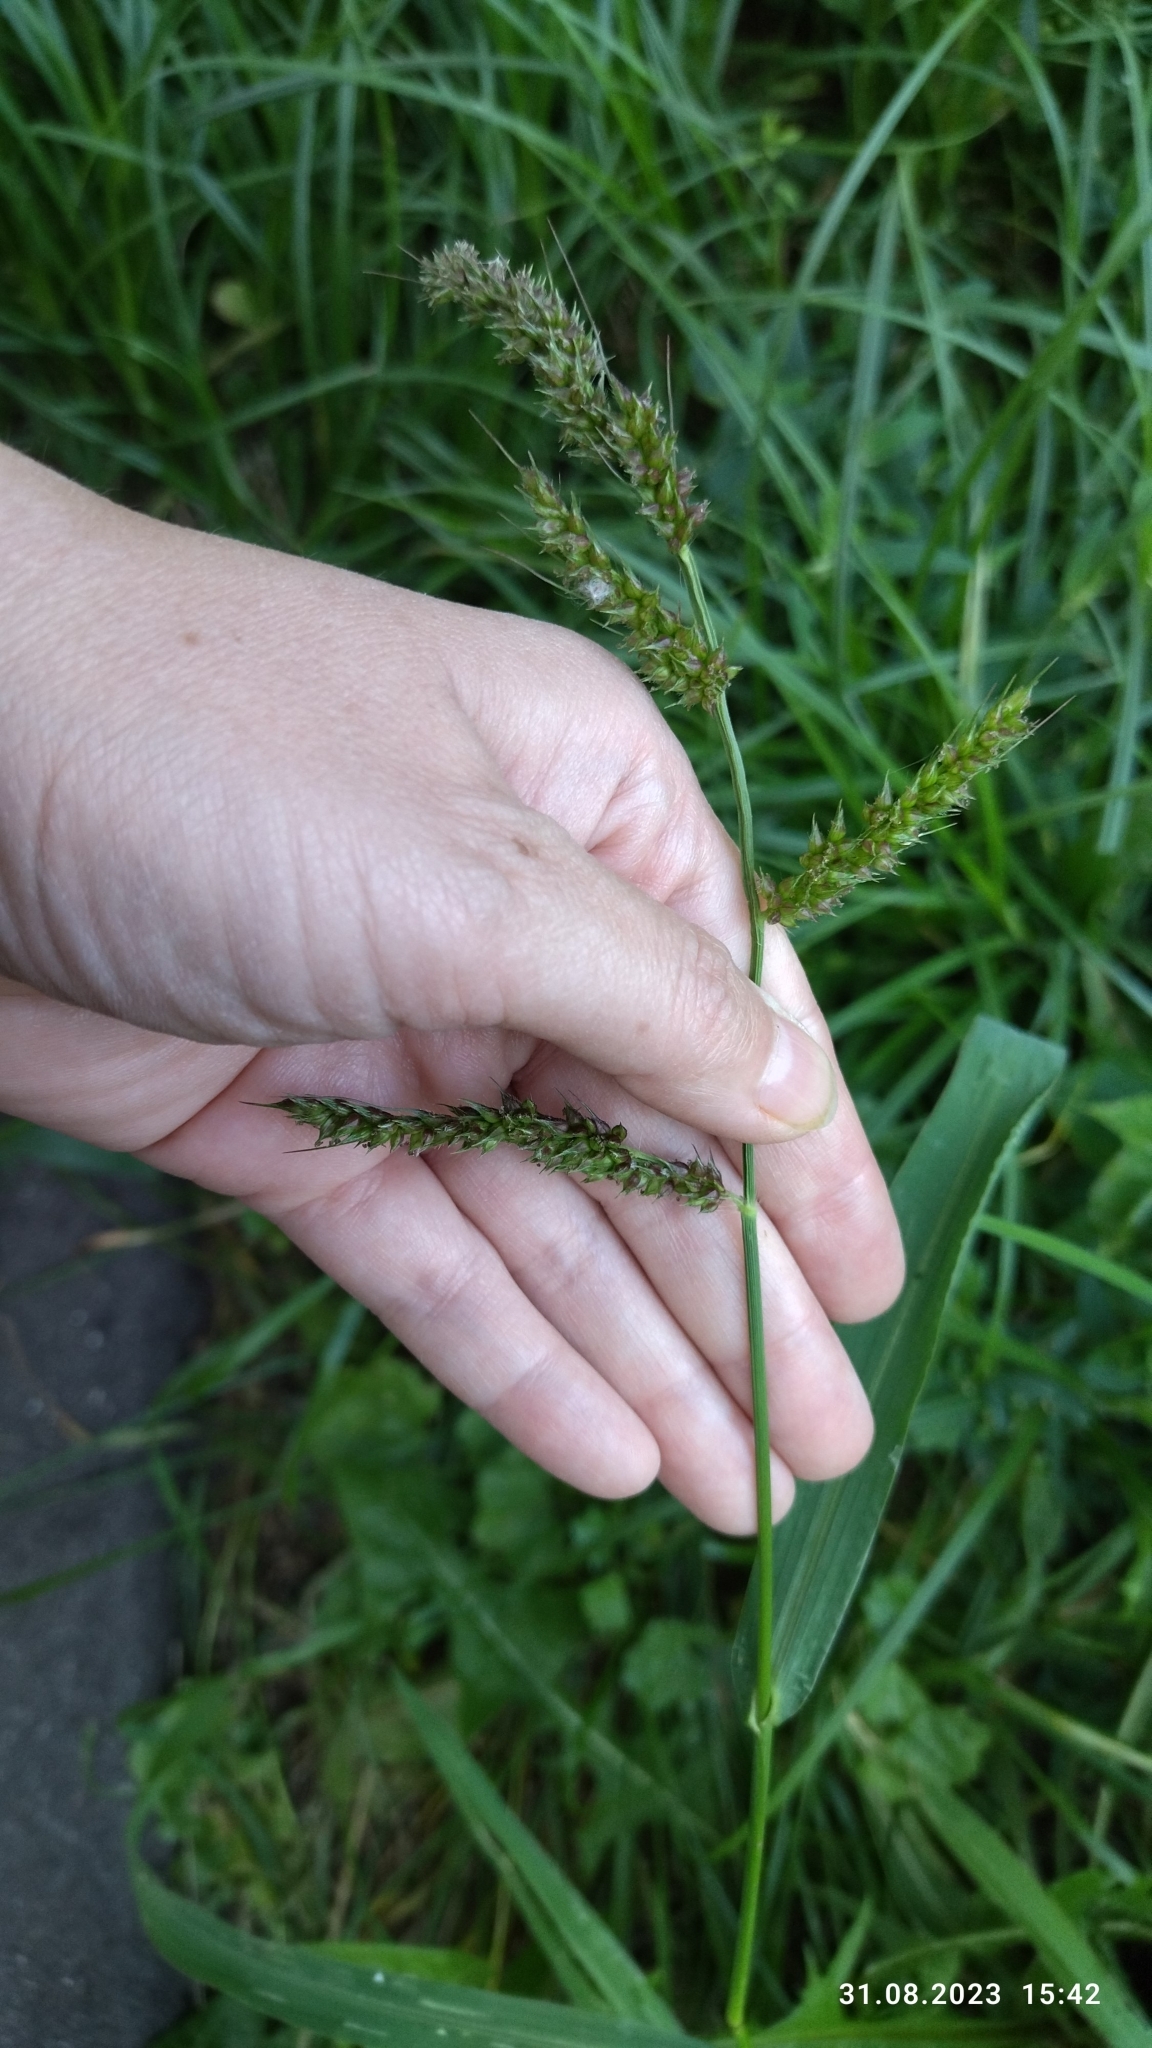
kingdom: Plantae
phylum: Tracheophyta
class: Liliopsida
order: Poales
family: Poaceae
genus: Echinochloa
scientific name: Echinochloa crus-galli
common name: Cockspur
